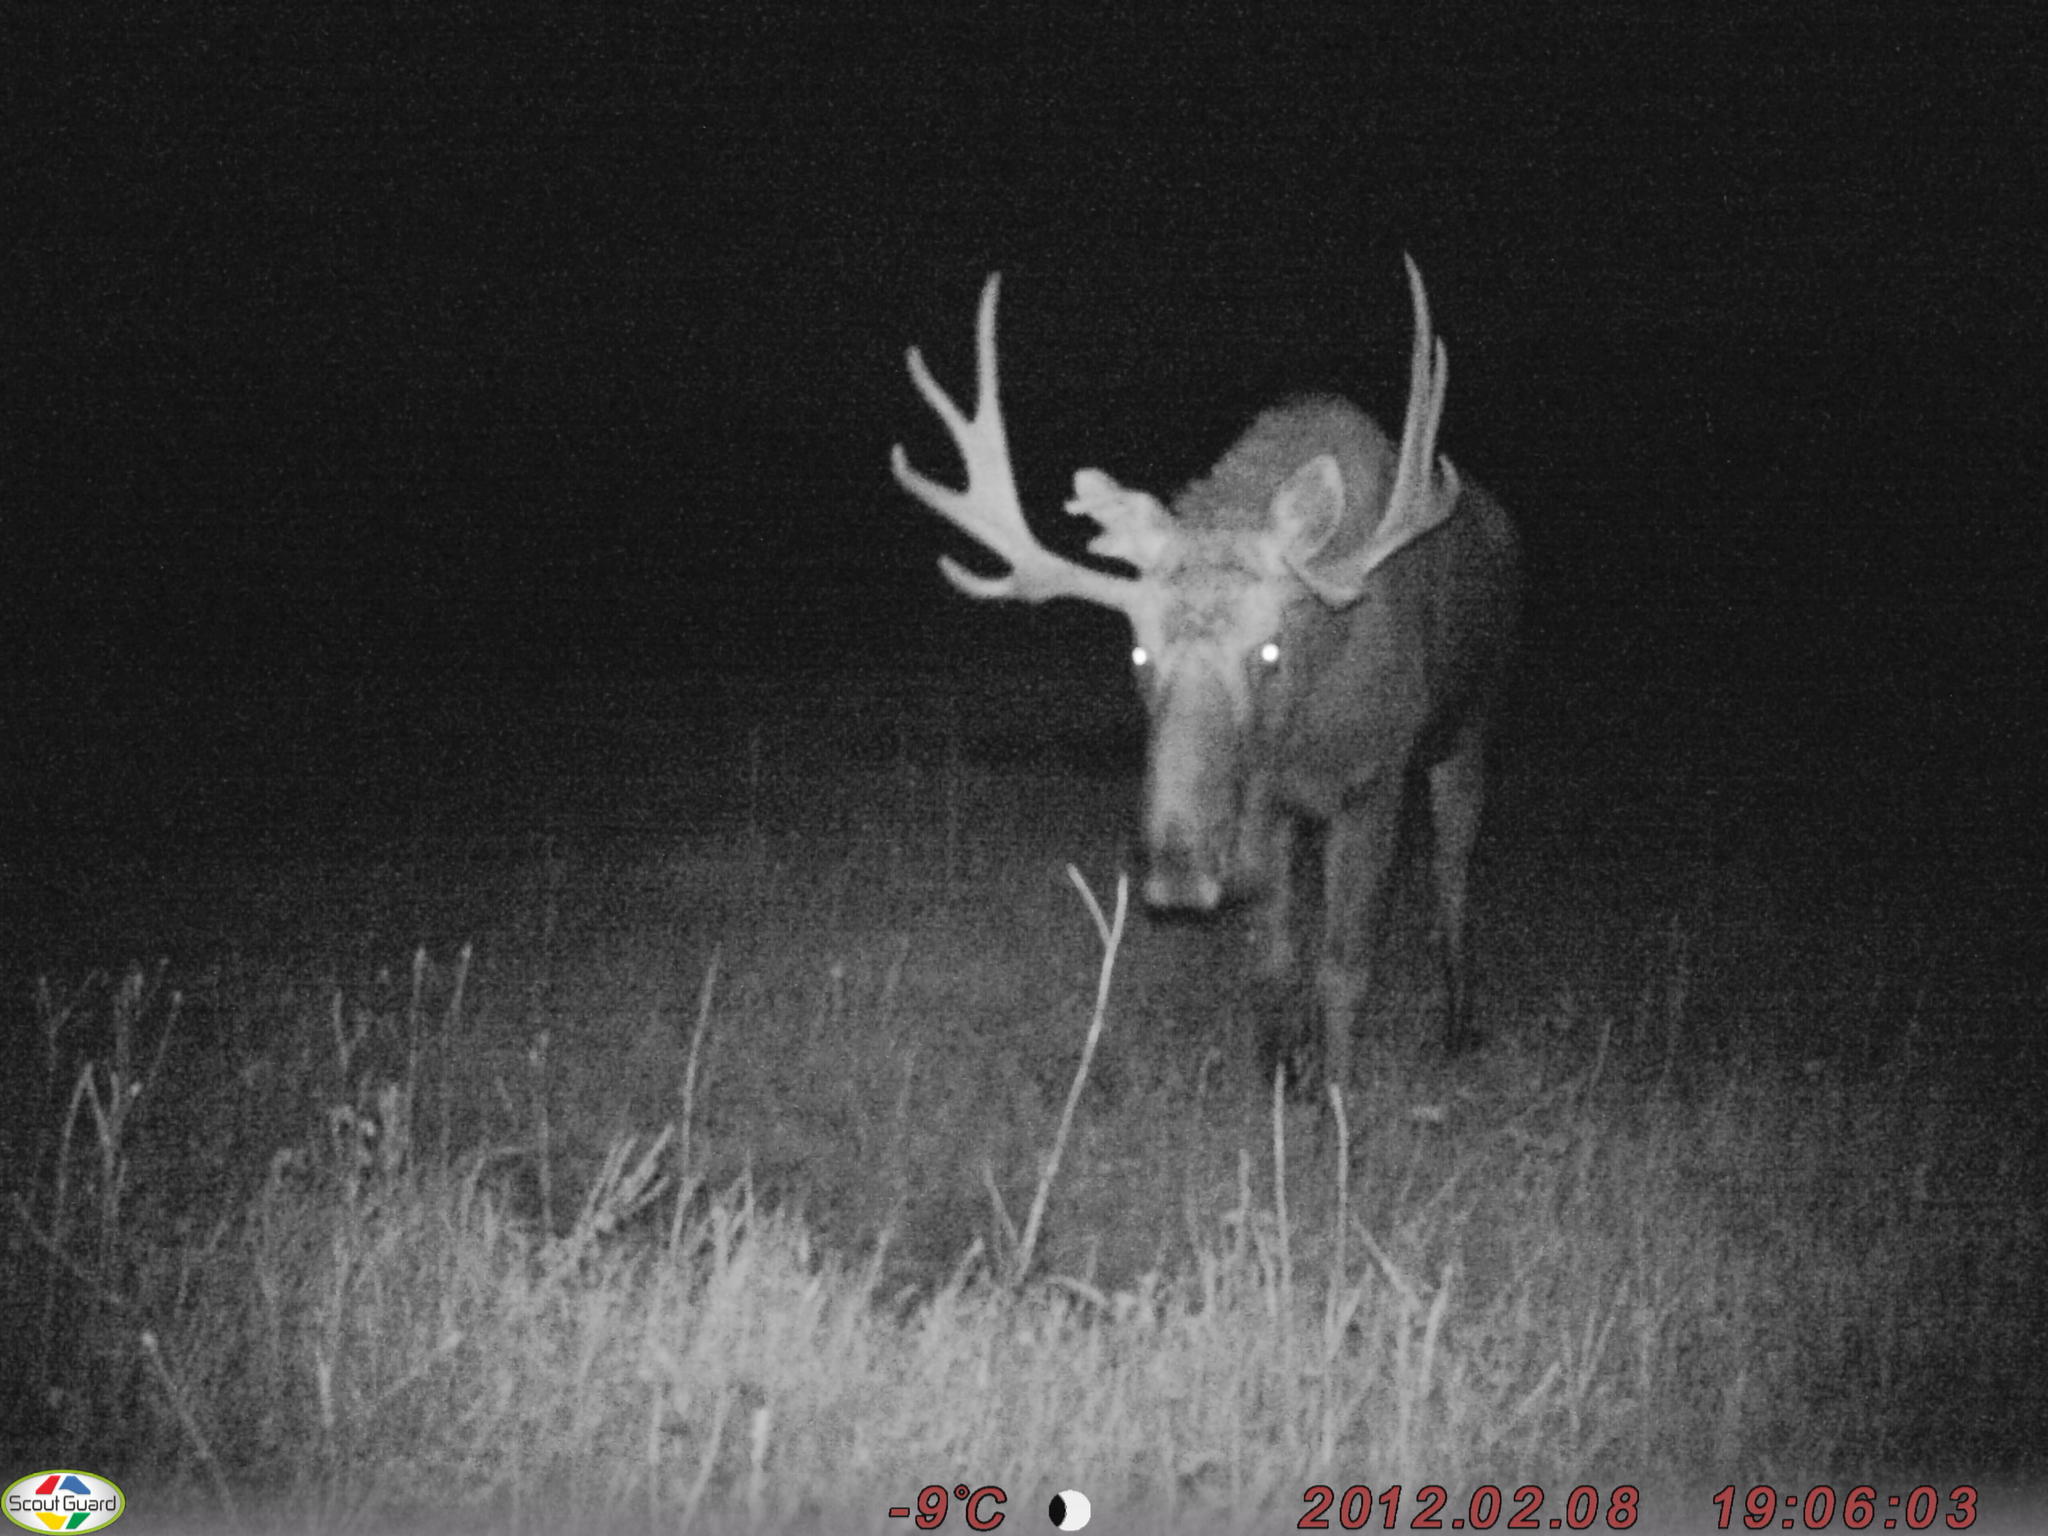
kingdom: Animalia
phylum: Chordata
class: Mammalia
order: Artiodactyla
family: Cervidae
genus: Alces
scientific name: Alces alces
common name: Moose
